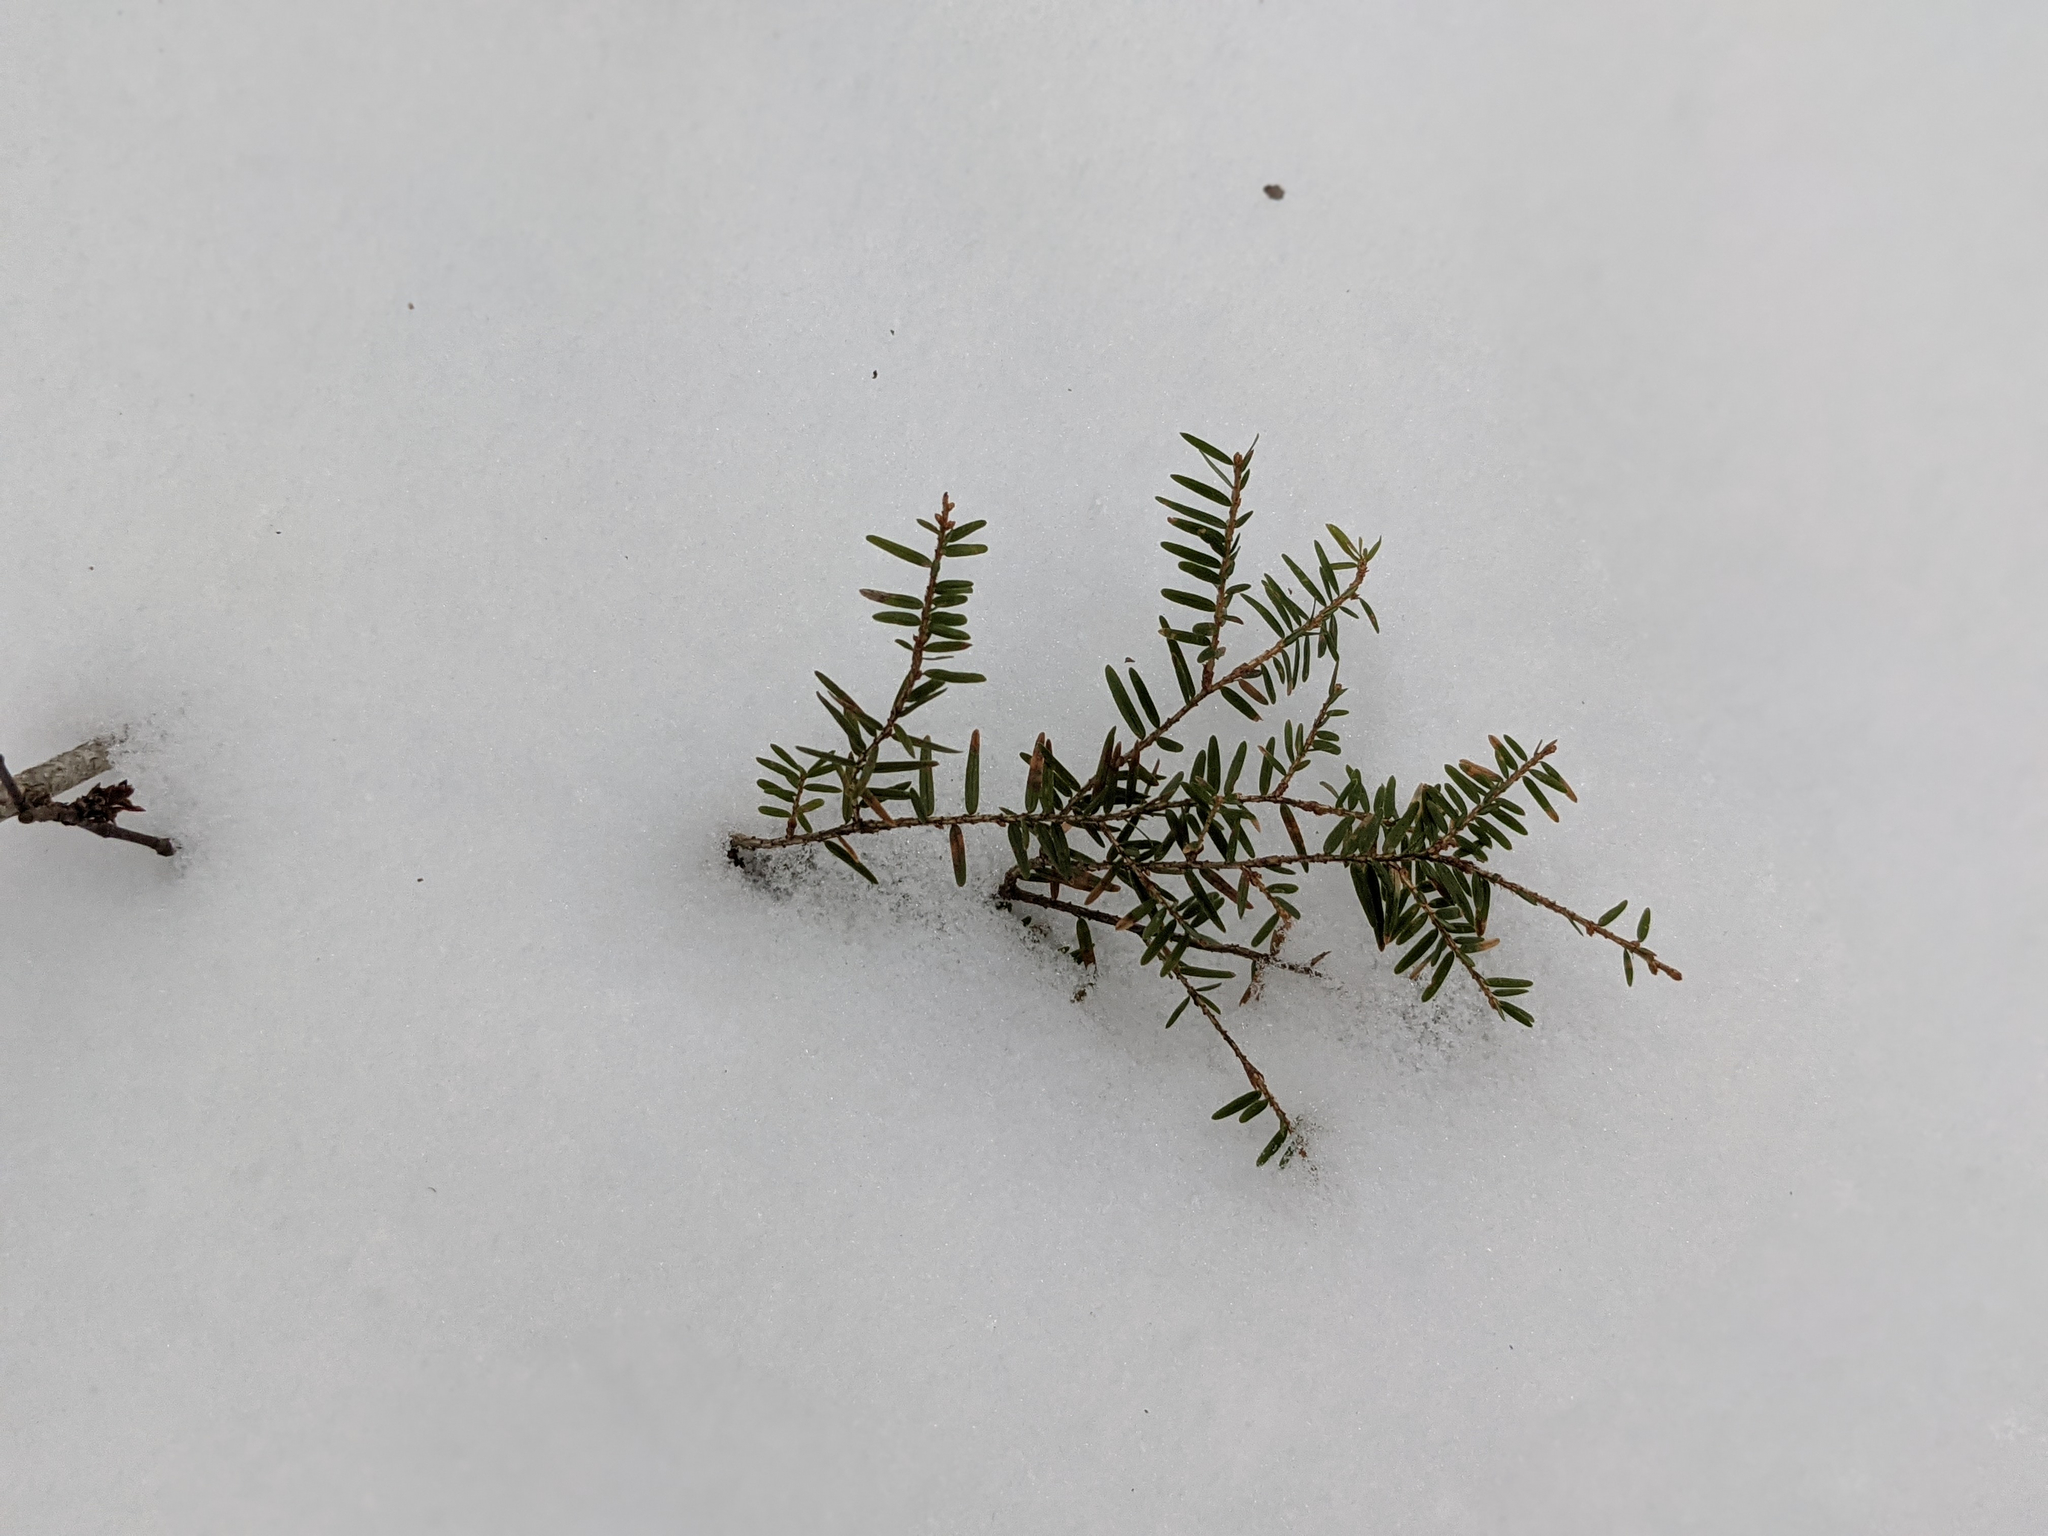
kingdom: Plantae
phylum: Tracheophyta
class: Pinopsida
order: Pinales
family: Pinaceae
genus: Tsuga
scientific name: Tsuga canadensis
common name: Eastern hemlock
